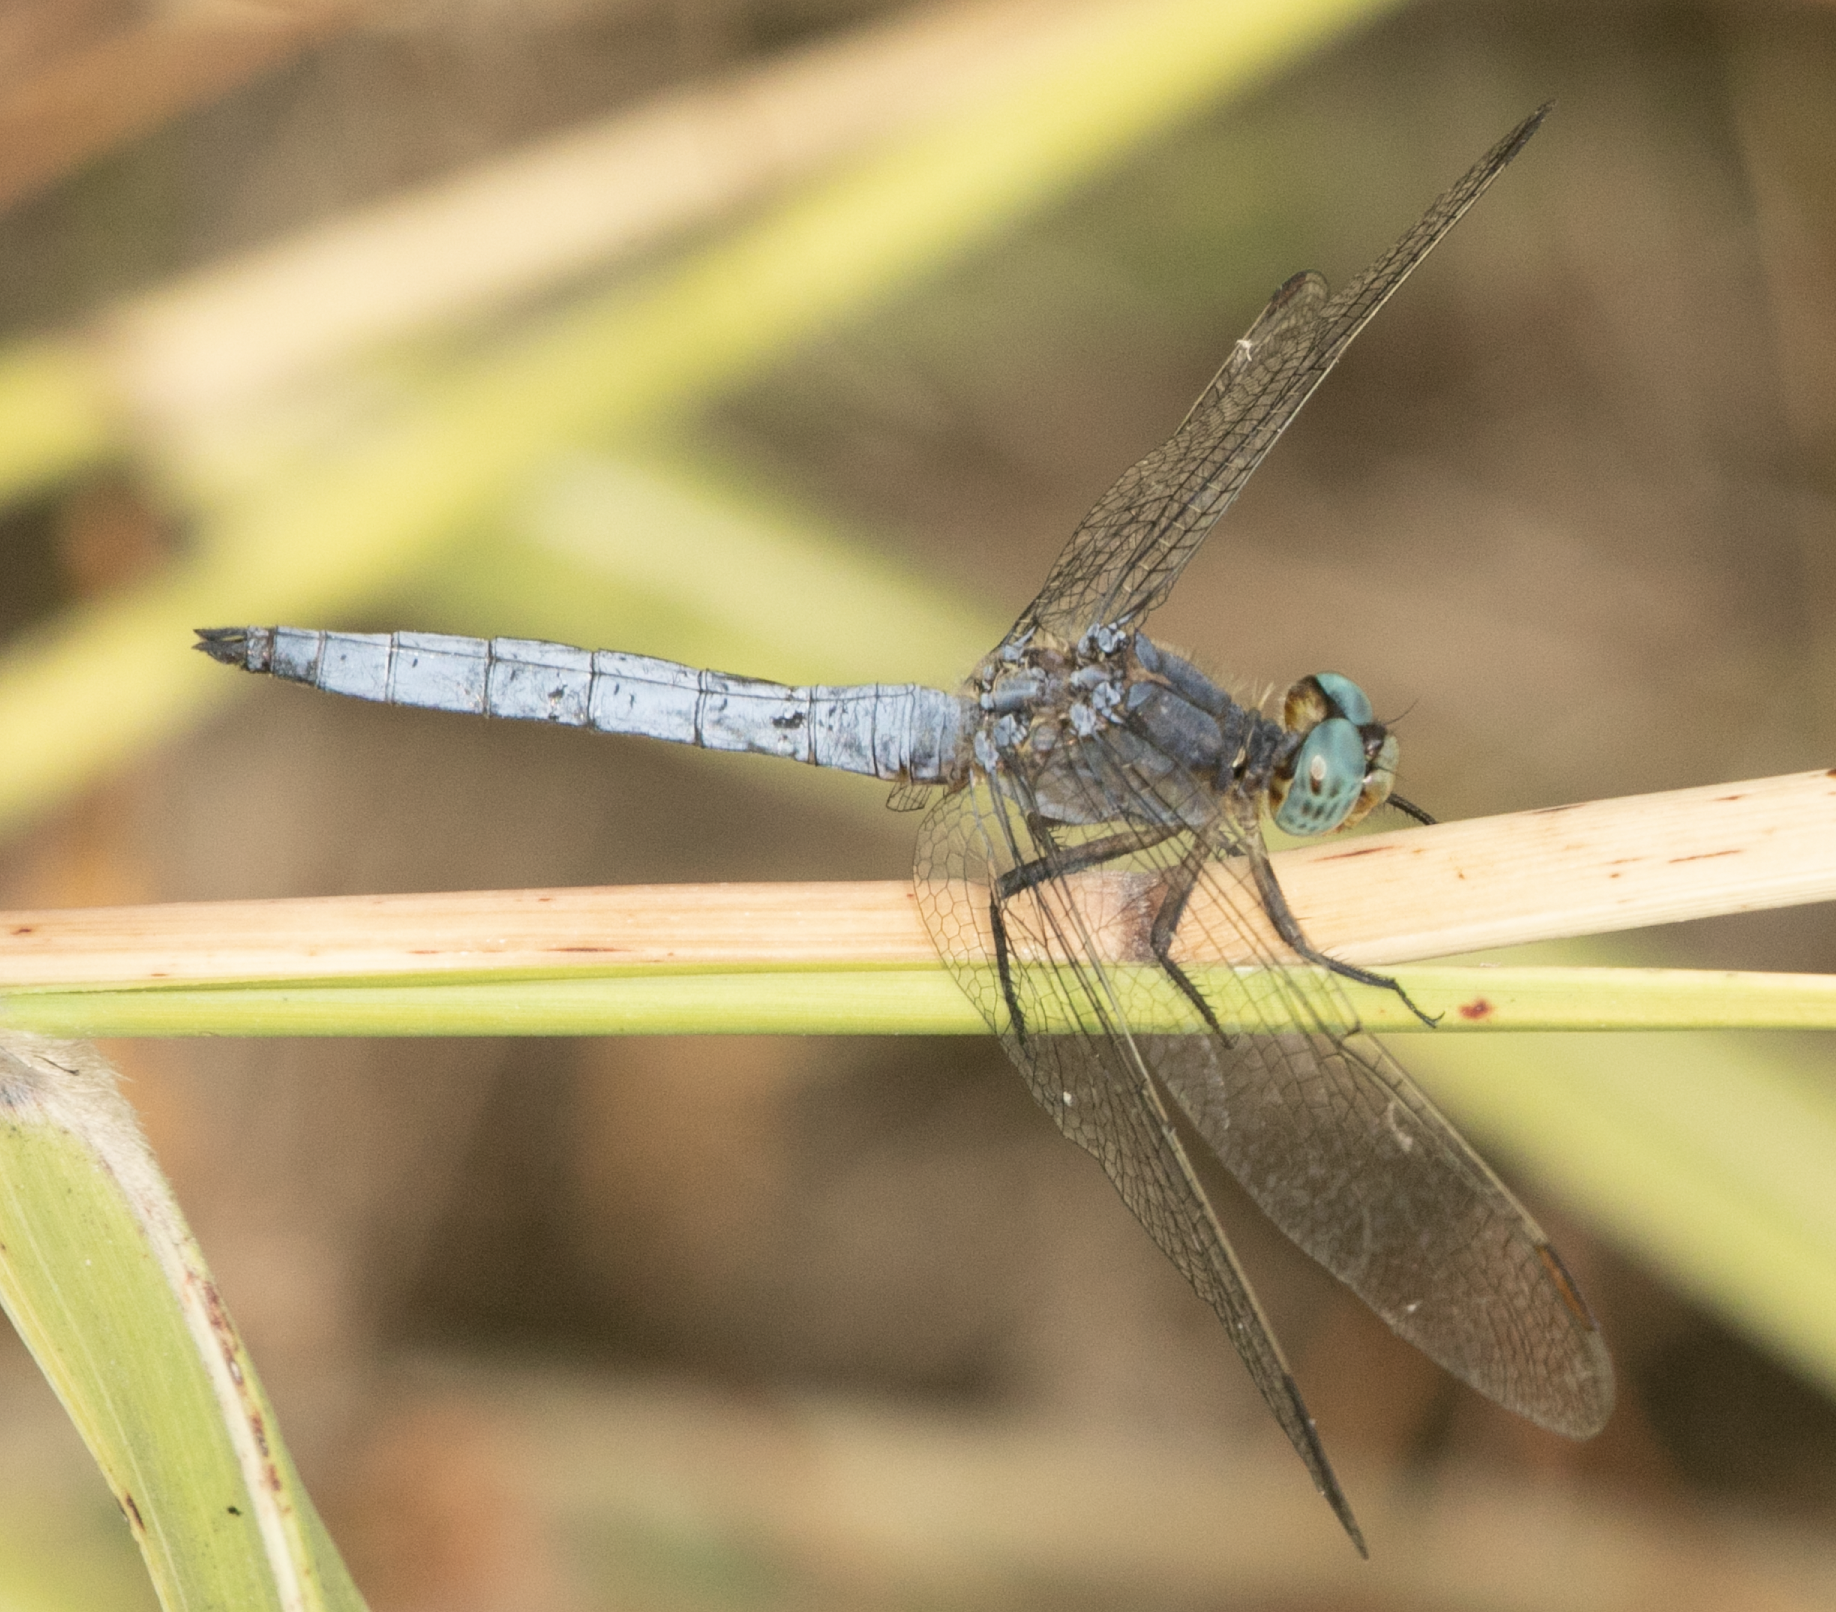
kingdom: Animalia
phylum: Arthropoda
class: Insecta
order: Odonata
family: Libellulidae
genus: Orthetrum
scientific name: Orthetrum coerulescens
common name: Keeled skimmer
